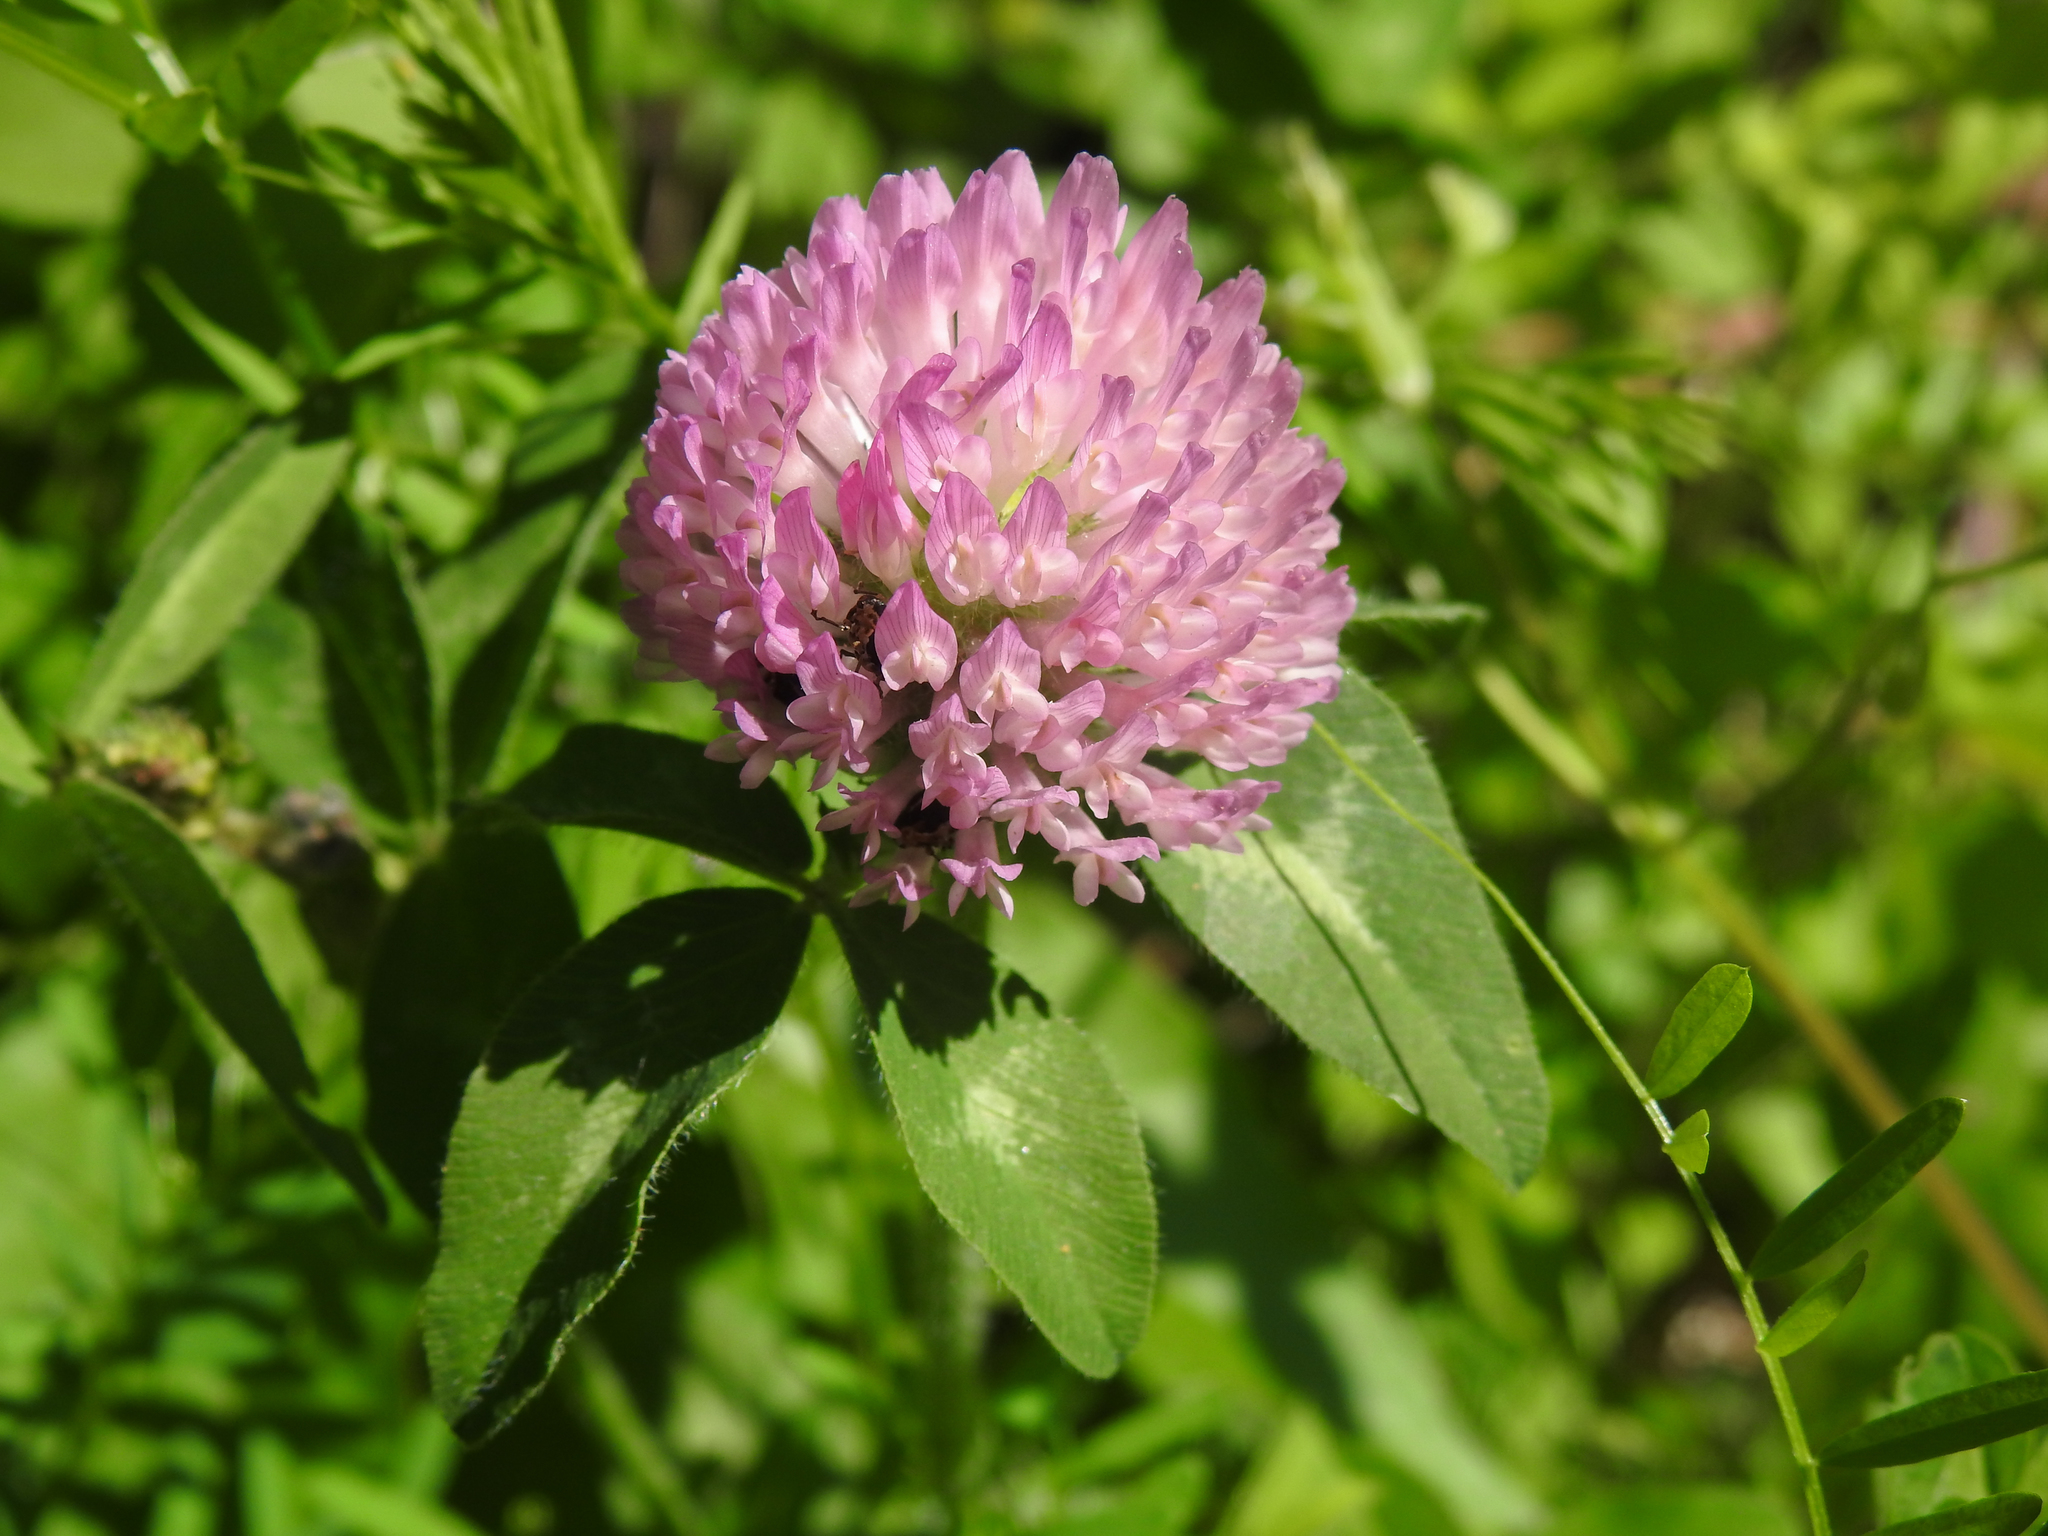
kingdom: Plantae
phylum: Tracheophyta
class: Magnoliopsida
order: Fabales
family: Fabaceae
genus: Trifolium
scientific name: Trifolium pratense
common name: Red clover
